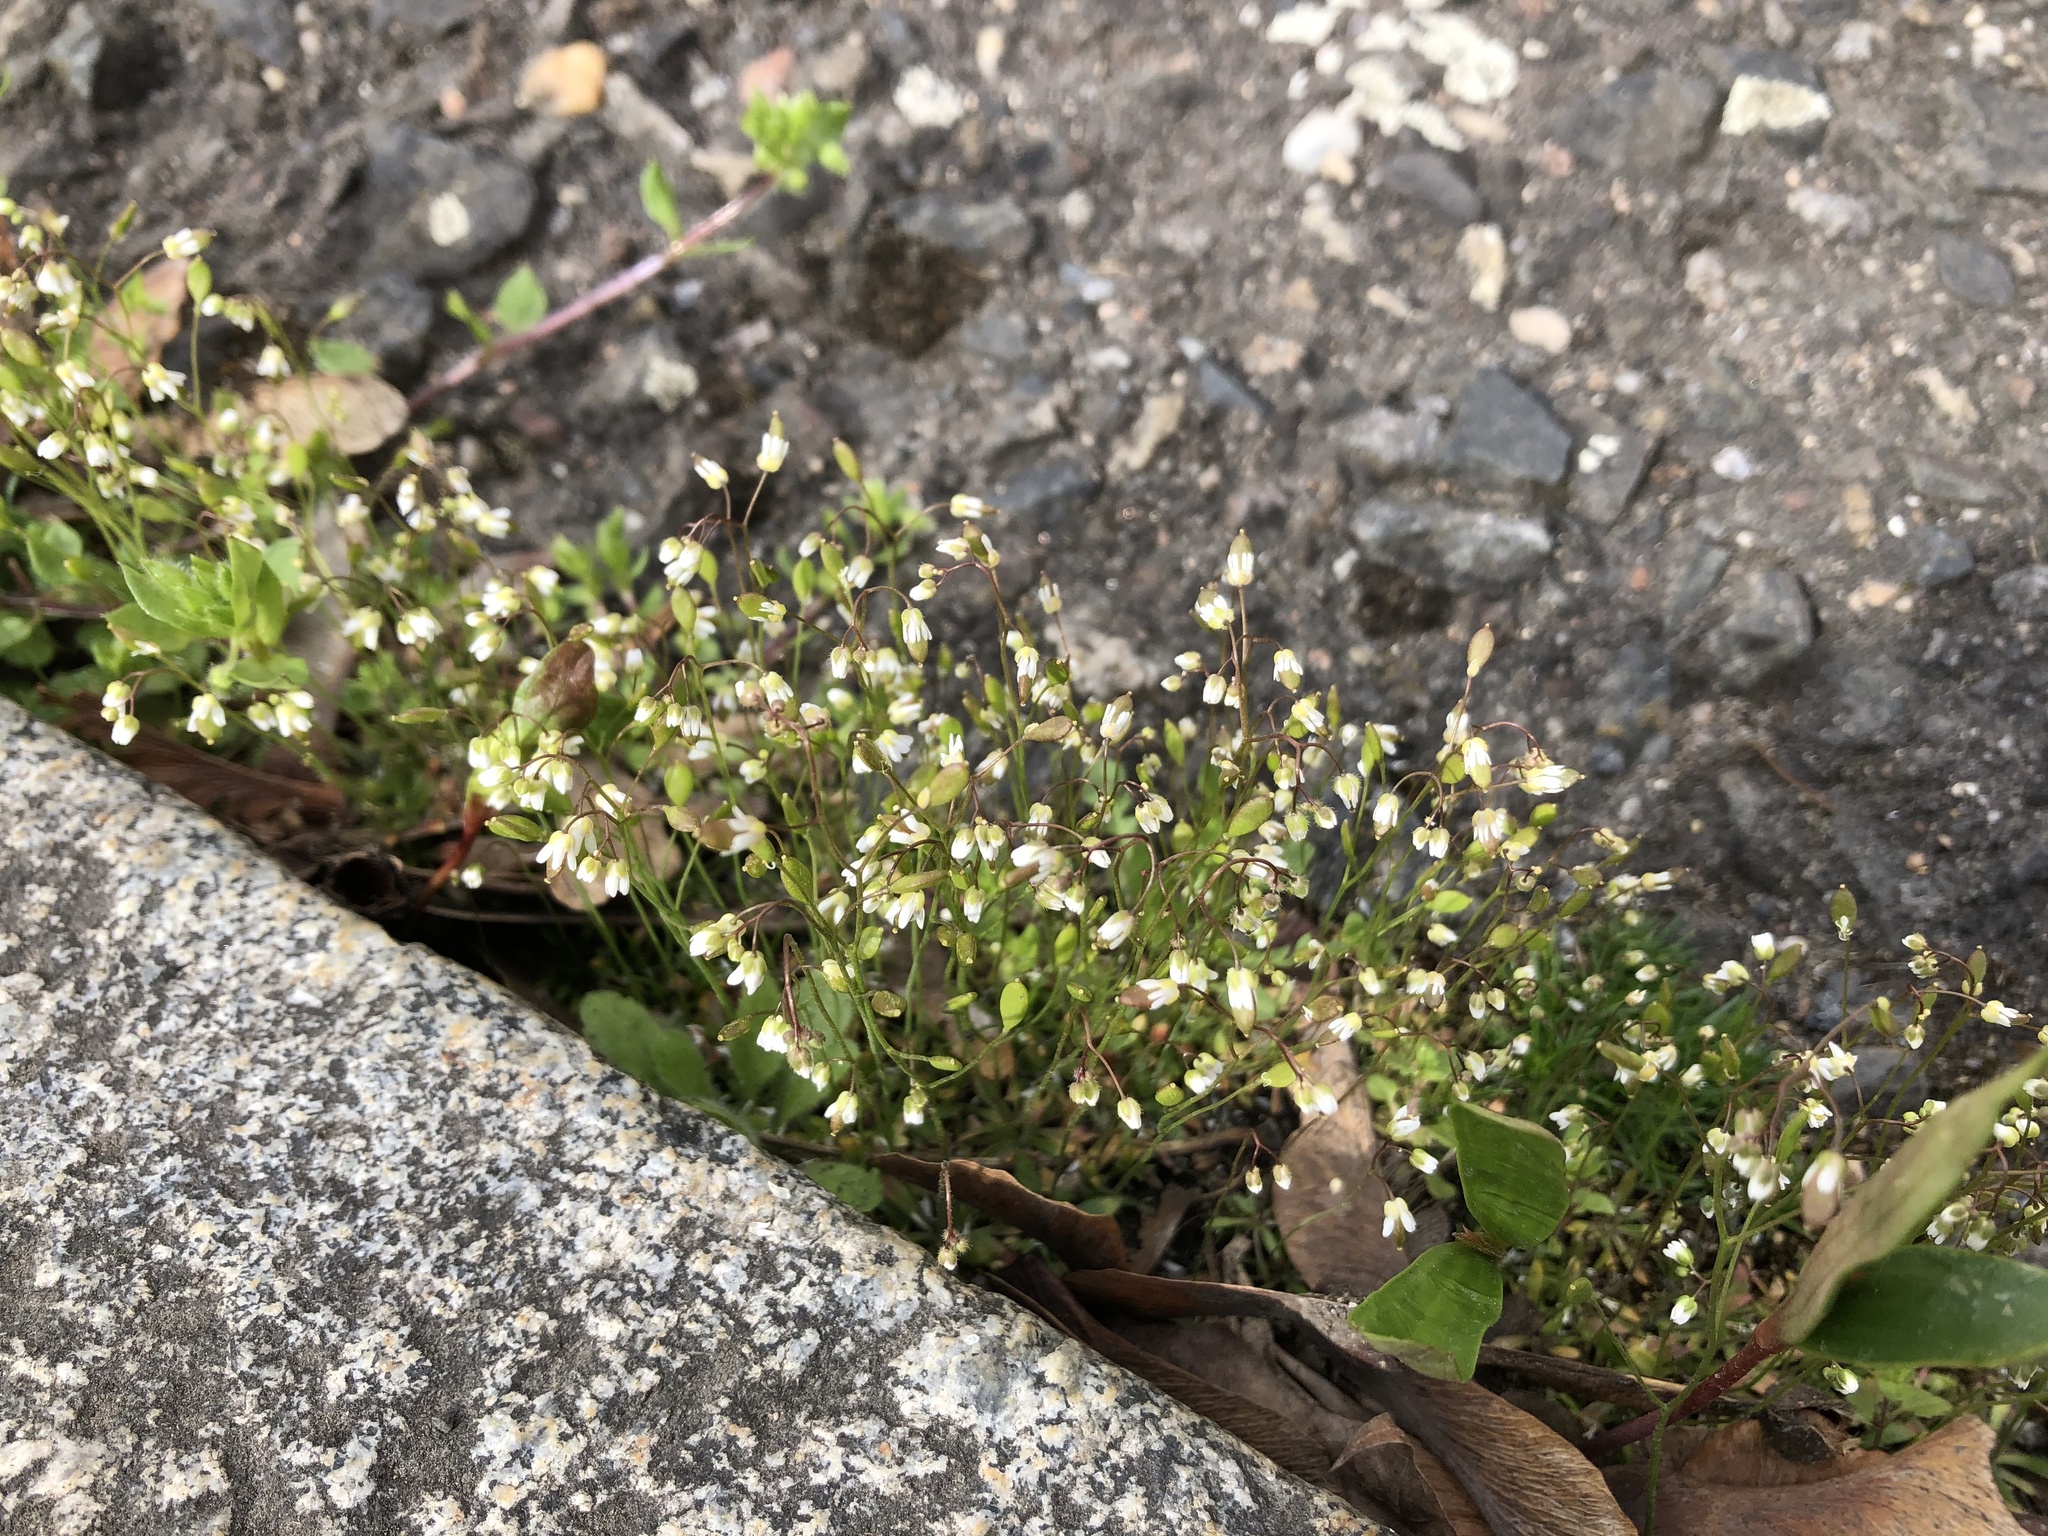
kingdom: Plantae
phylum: Tracheophyta
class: Magnoliopsida
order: Brassicales
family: Brassicaceae
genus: Draba
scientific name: Draba verna
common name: Spring draba
